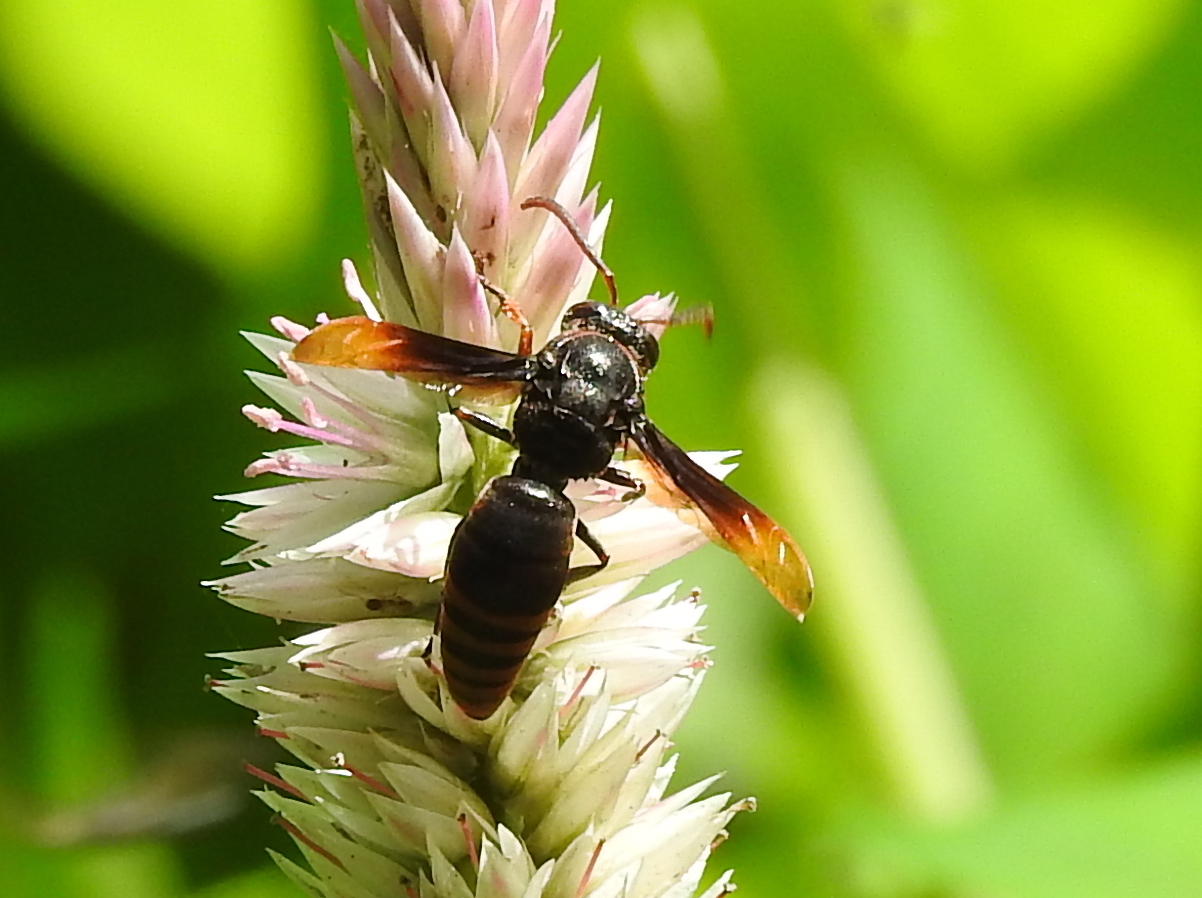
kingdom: Animalia
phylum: Arthropoda
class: Insecta
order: Hymenoptera
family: Eumenidae
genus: Rhynchium
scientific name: Rhynchium haemorrhoidale
